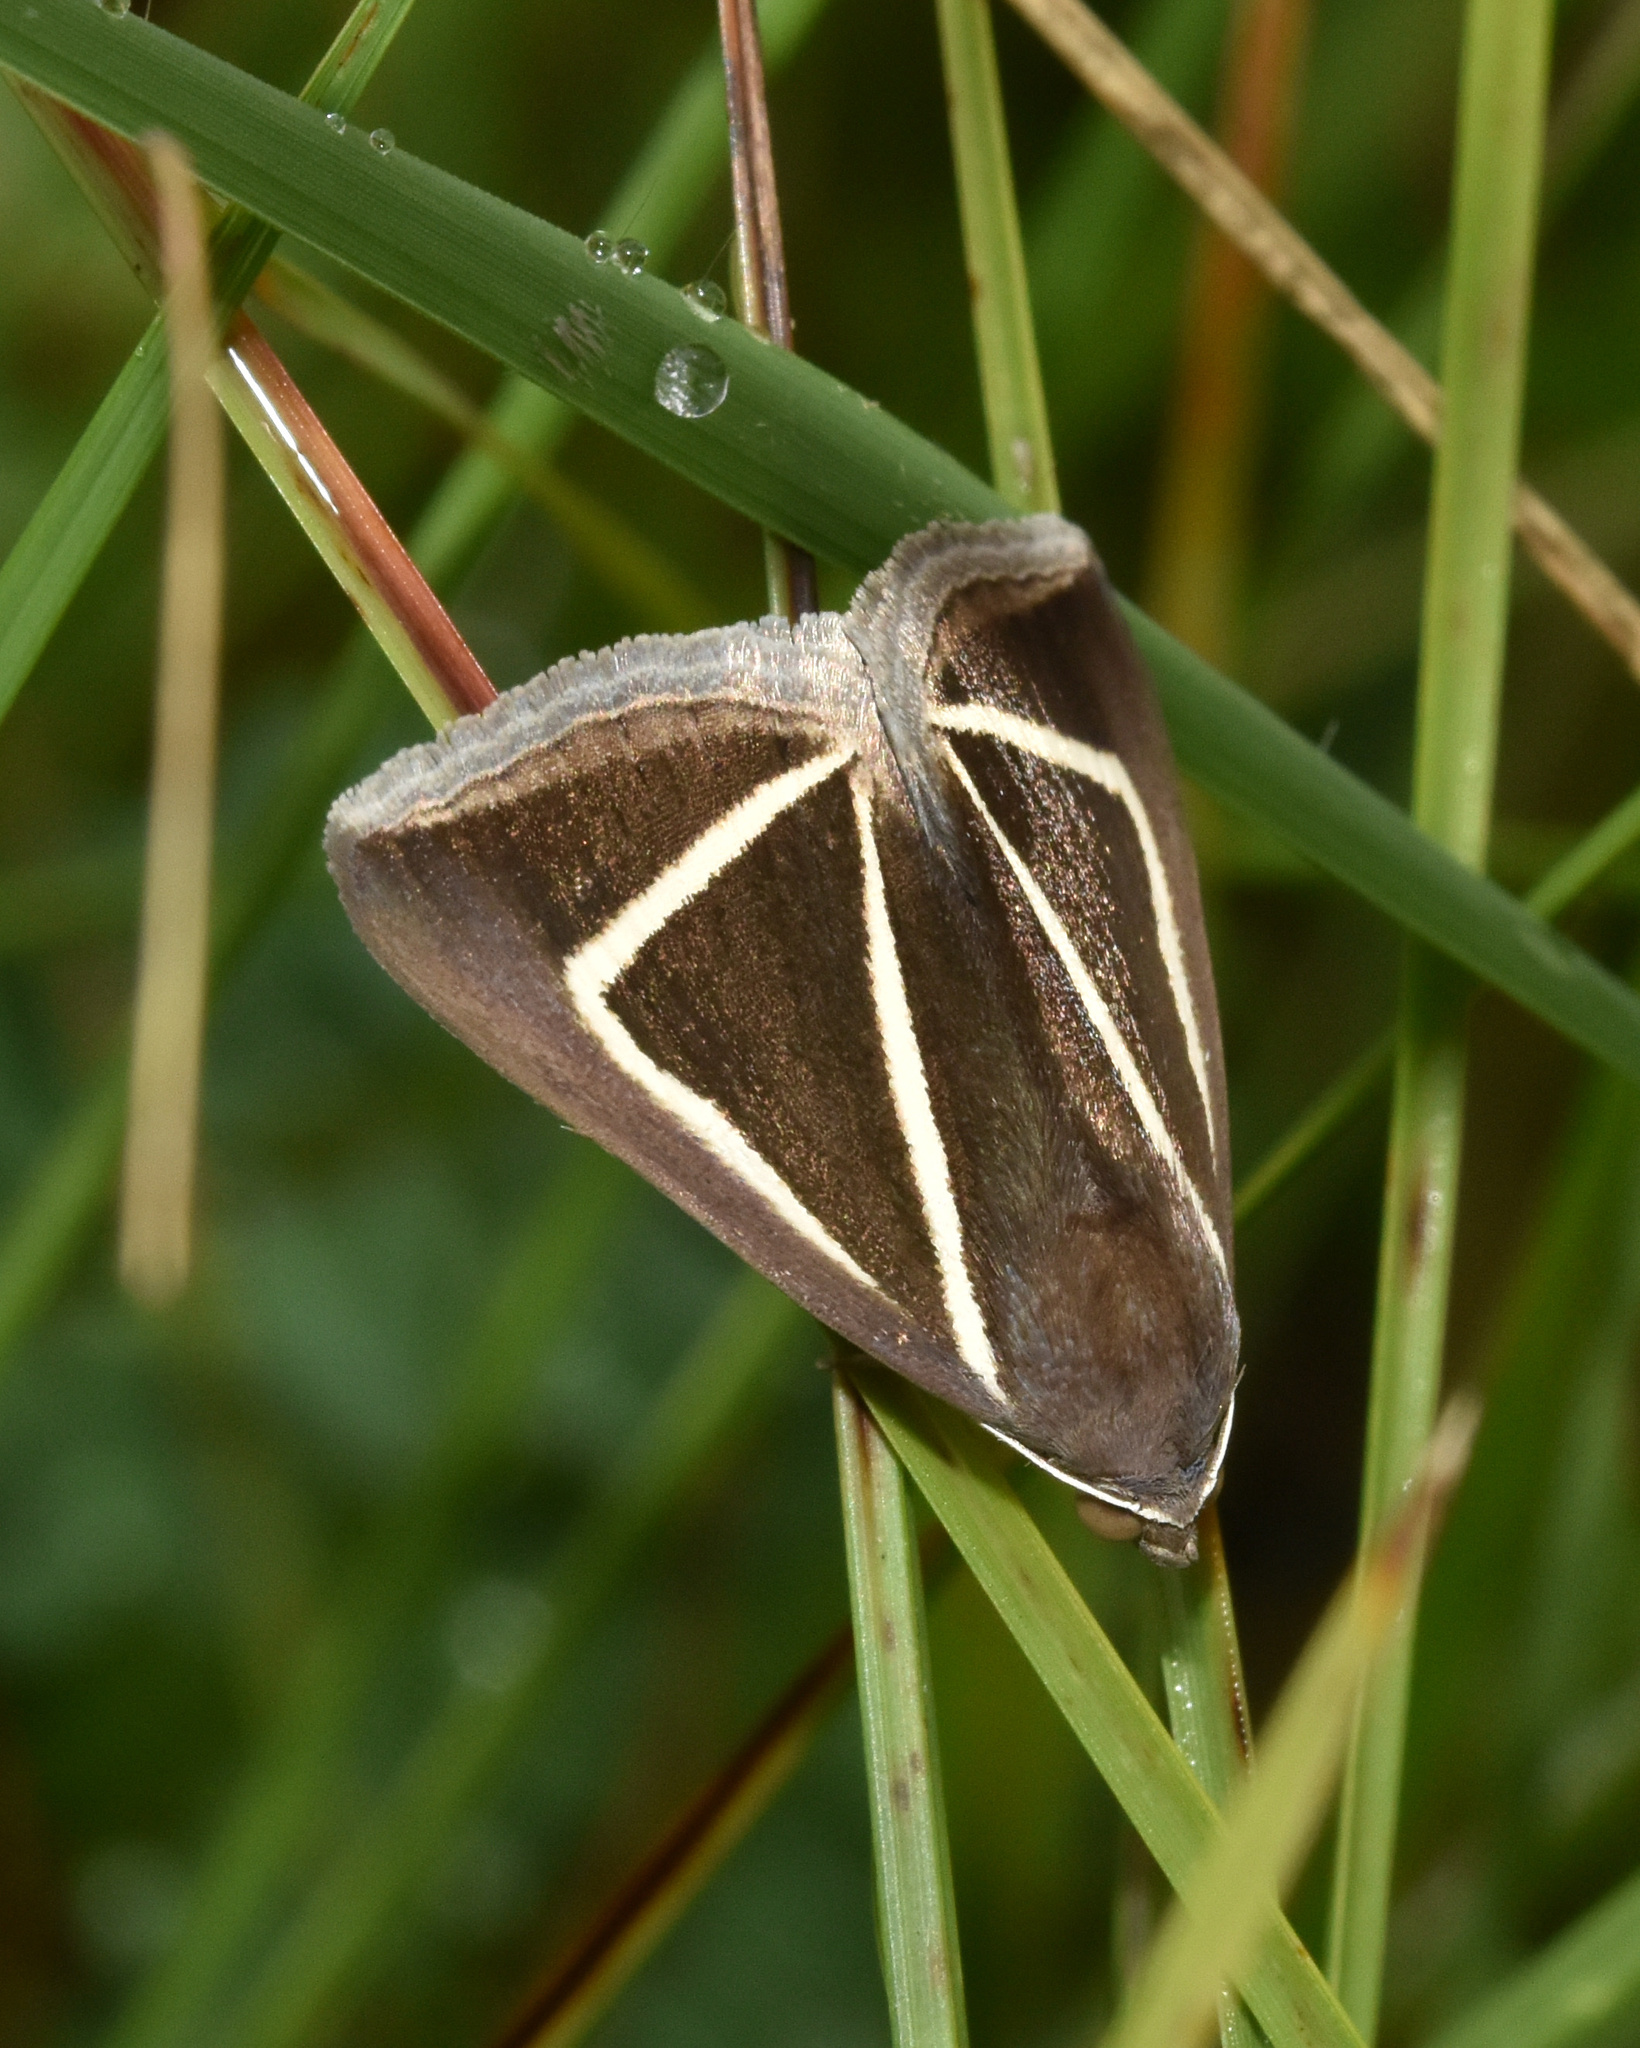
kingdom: Animalia
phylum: Arthropoda
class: Insecta
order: Lepidoptera
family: Erebidae
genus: Chalciope
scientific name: Chalciope delta
